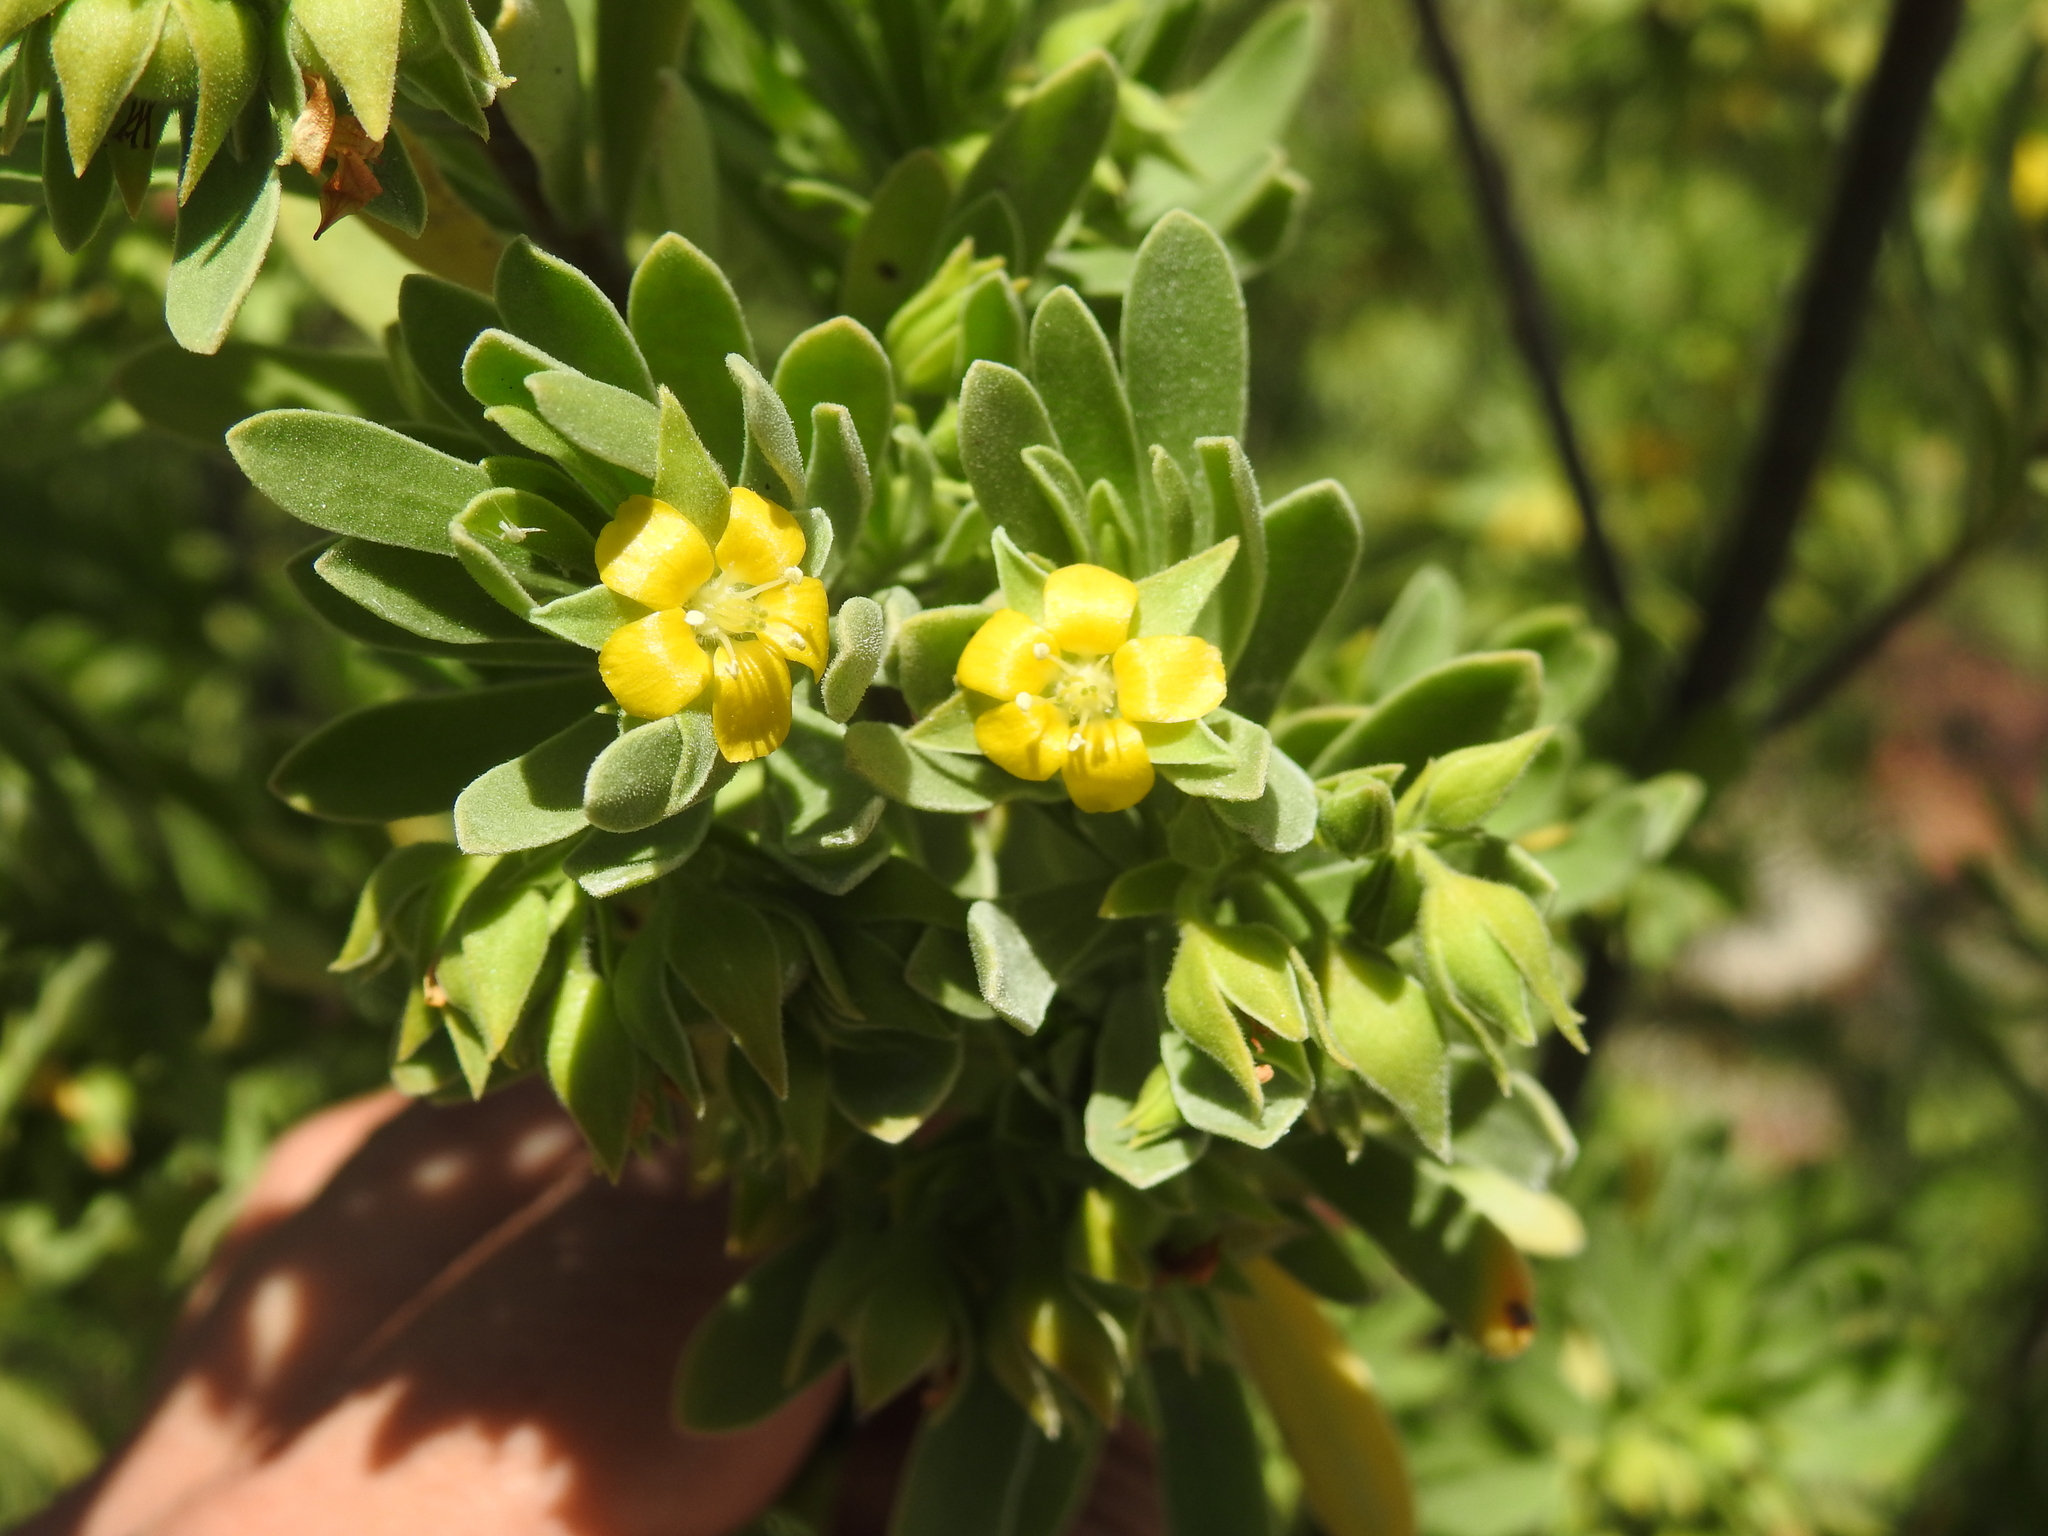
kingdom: Plantae
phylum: Tracheophyta
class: Magnoliopsida
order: Fabales
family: Surianaceae
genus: Suriana
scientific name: Suriana maritima
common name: Bay-cedar
